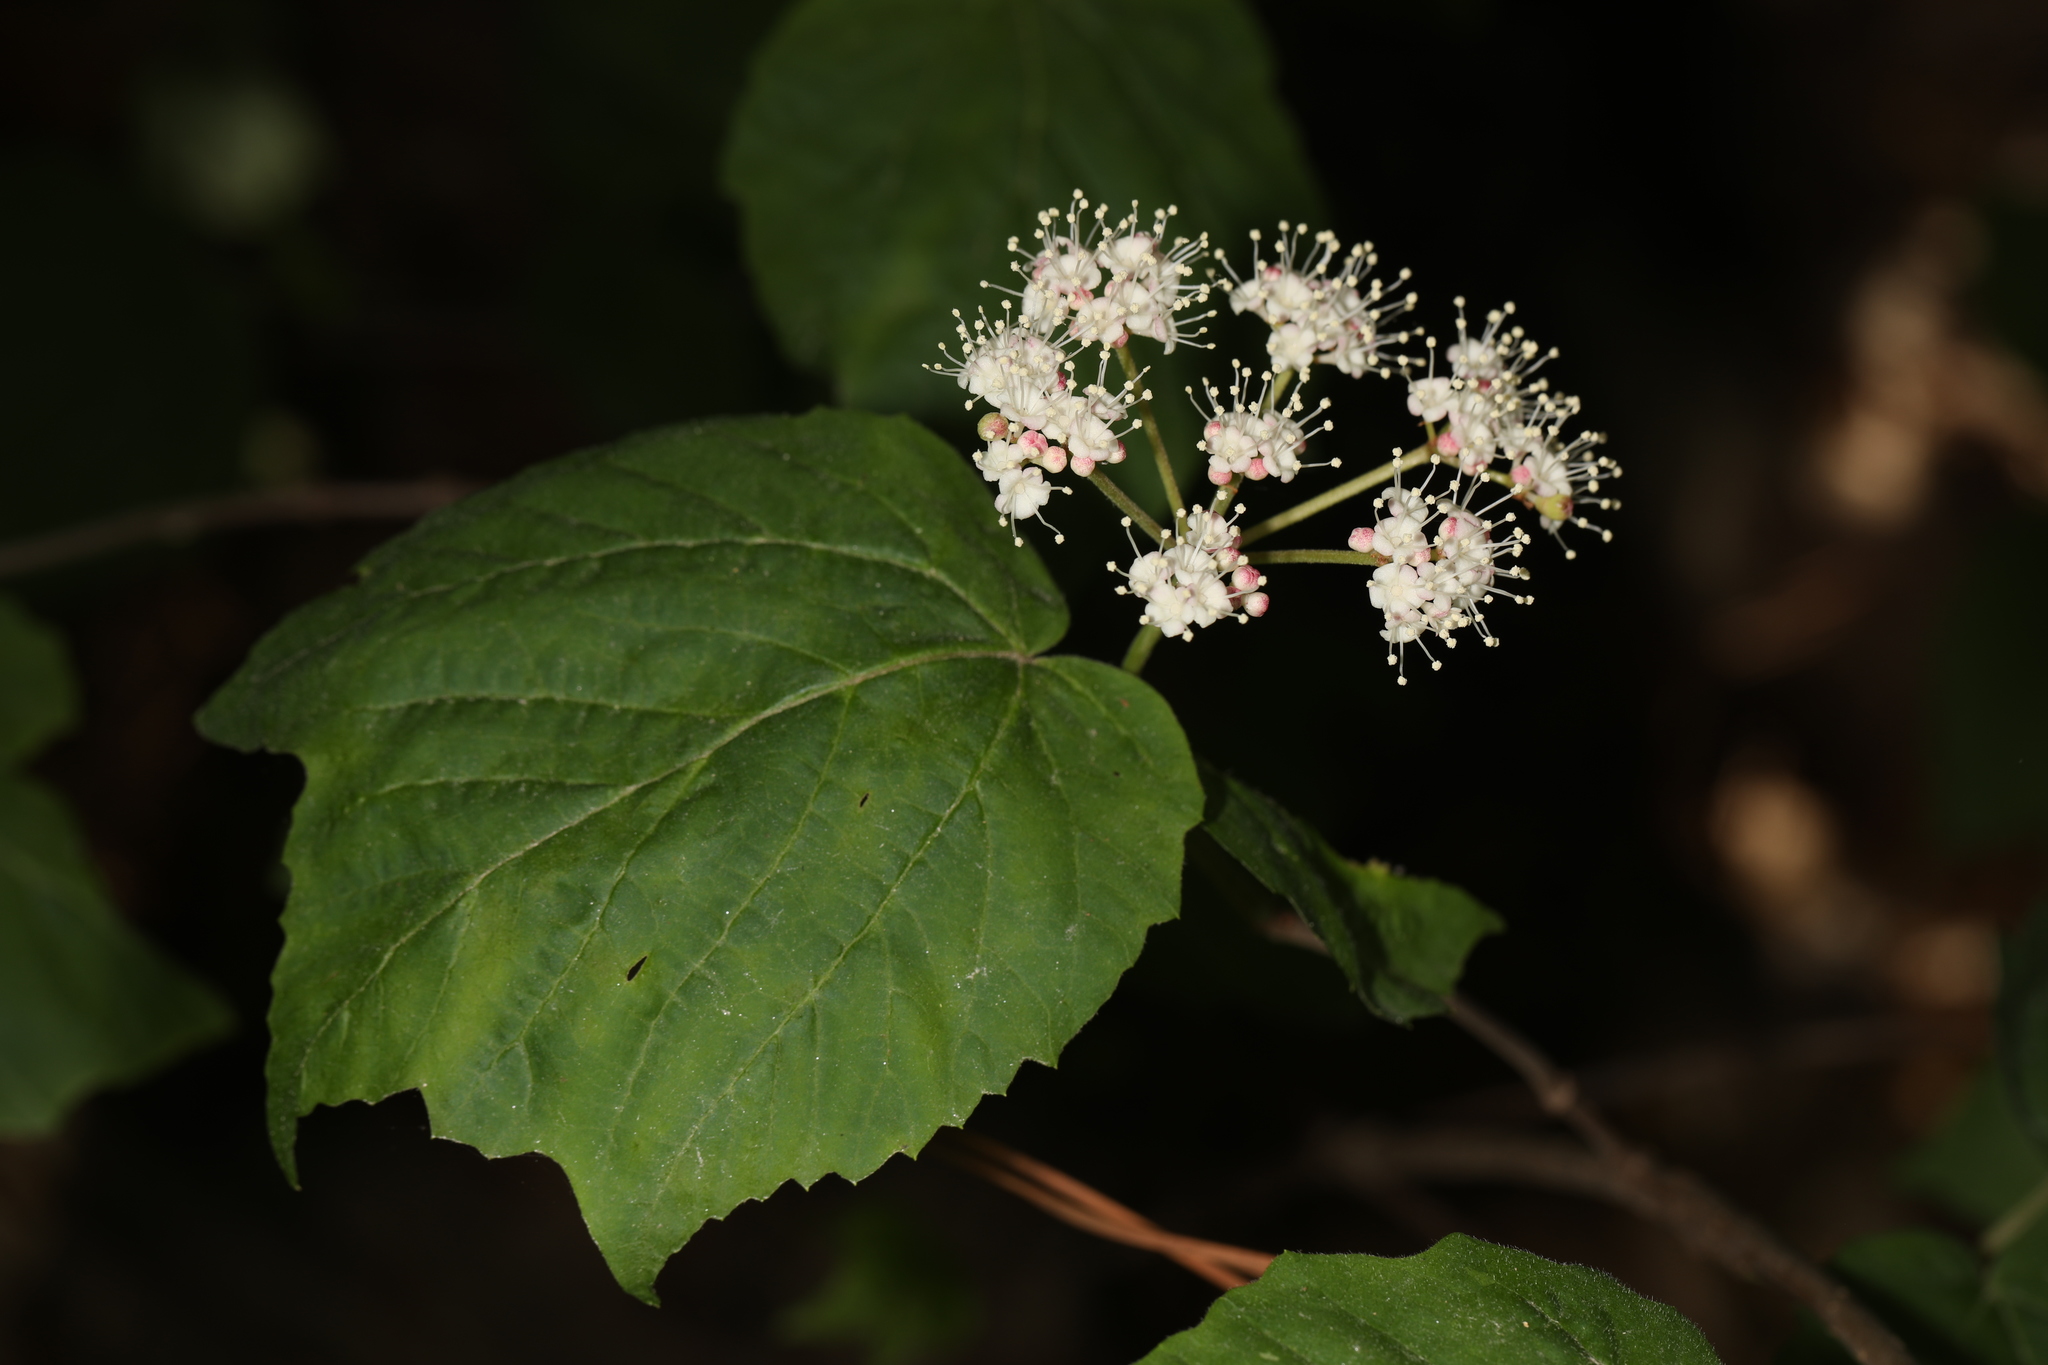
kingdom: Plantae
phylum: Tracheophyta
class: Magnoliopsida
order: Dipsacales
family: Viburnaceae
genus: Viburnum
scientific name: Viburnum acerifolium
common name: Dockmackie
